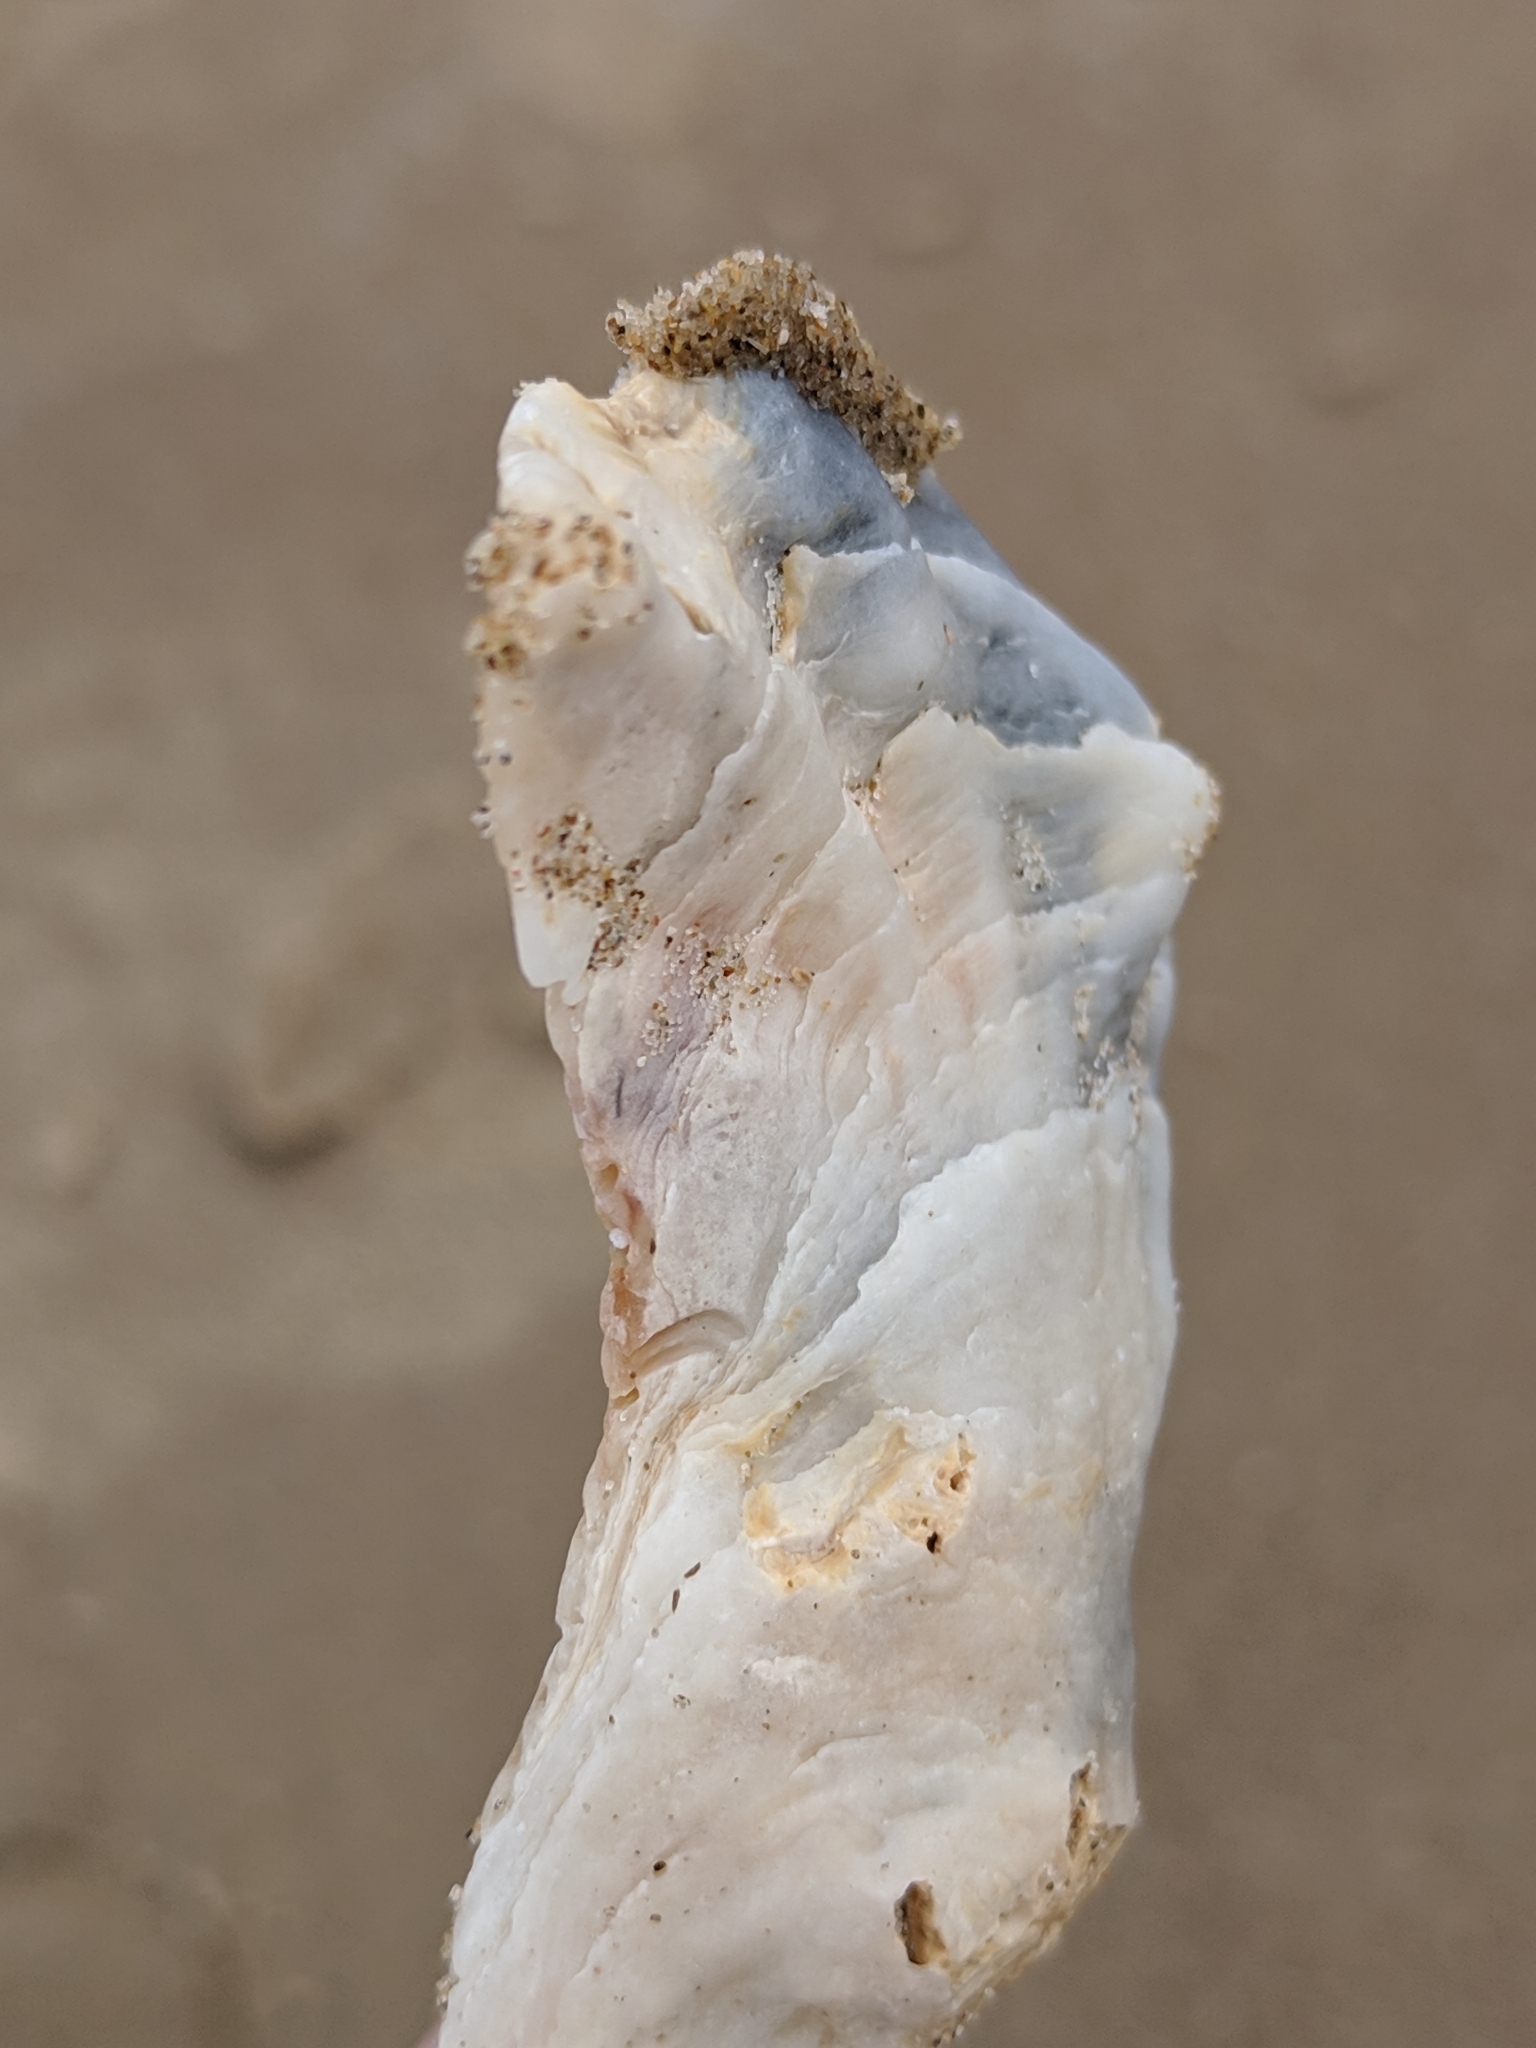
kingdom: Animalia
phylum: Mollusca
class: Bivalvia
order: Ostreida
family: Ostreidae
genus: Crassostrea
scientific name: Crassostrea virginica
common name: American oyster
